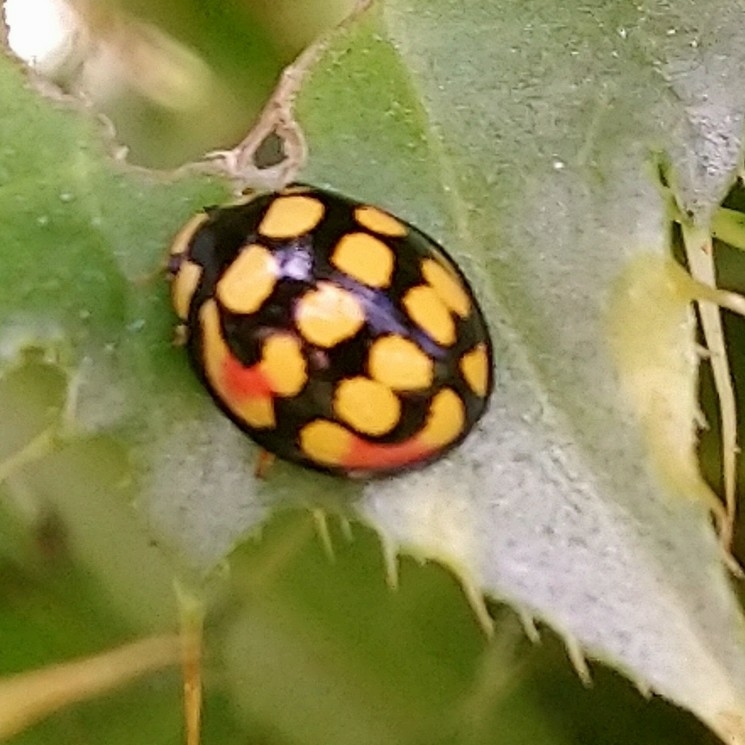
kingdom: Animalia
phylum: Arthropoda
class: Insecta
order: Coleoptera
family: Coccinellidae
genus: Cheilomenes
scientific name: Cheilomenes sulphurea
